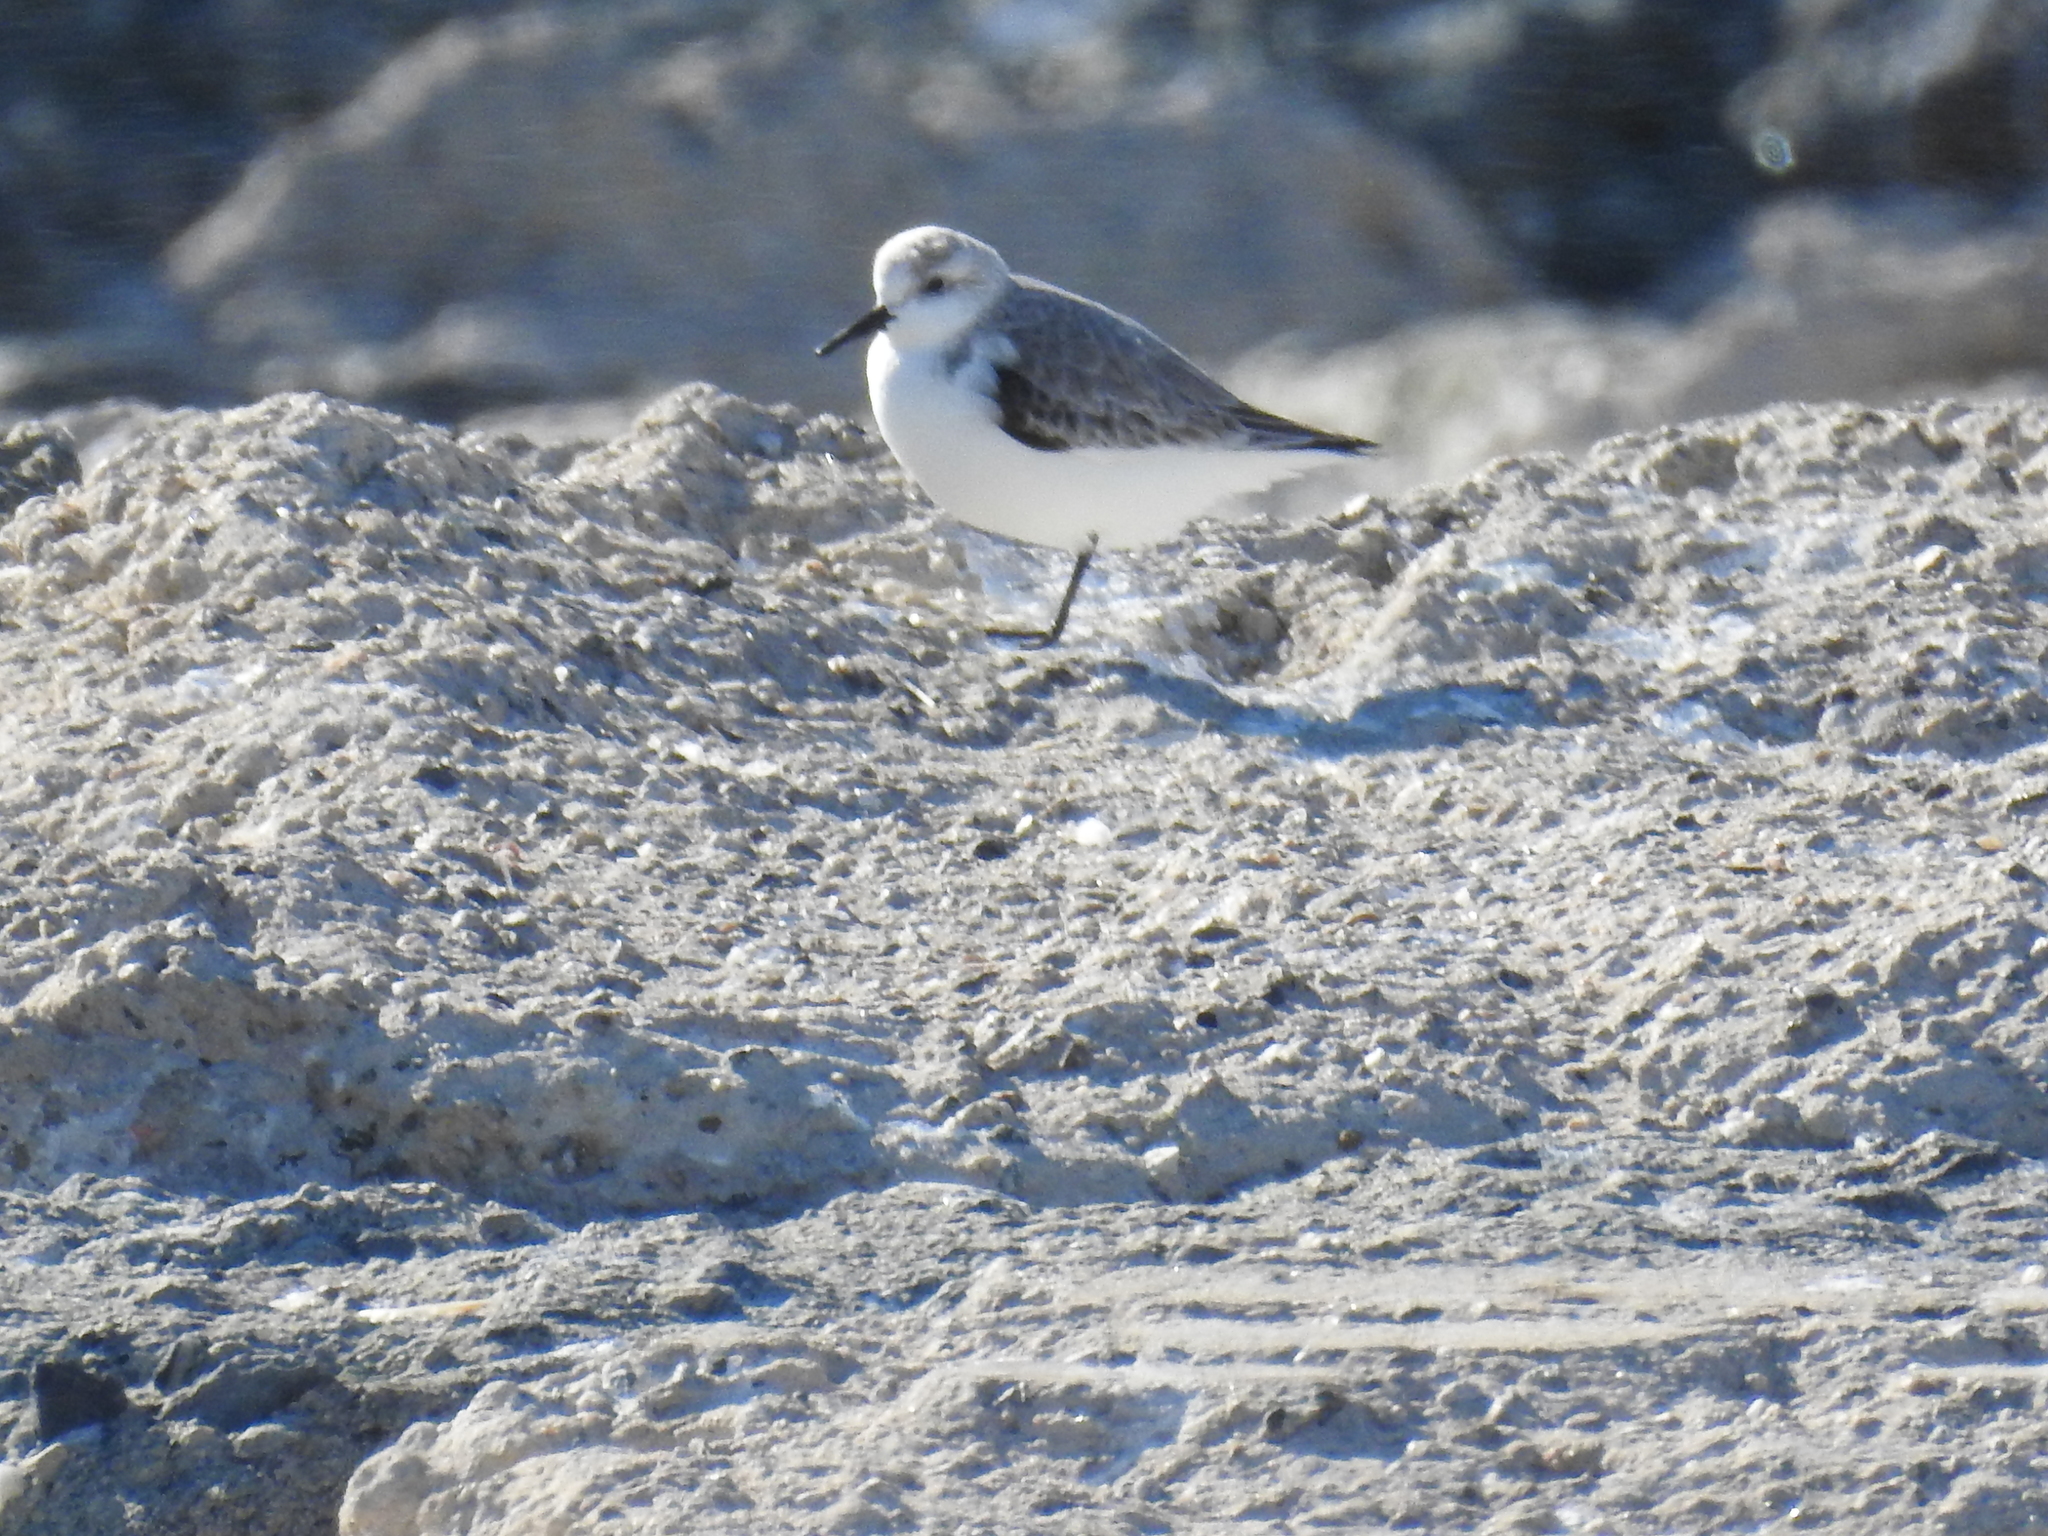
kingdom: Animalia
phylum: Chordata
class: Aves
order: Charadriiformes
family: Scolopacidae
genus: Calidris
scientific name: Calidris alba
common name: Sanderling
